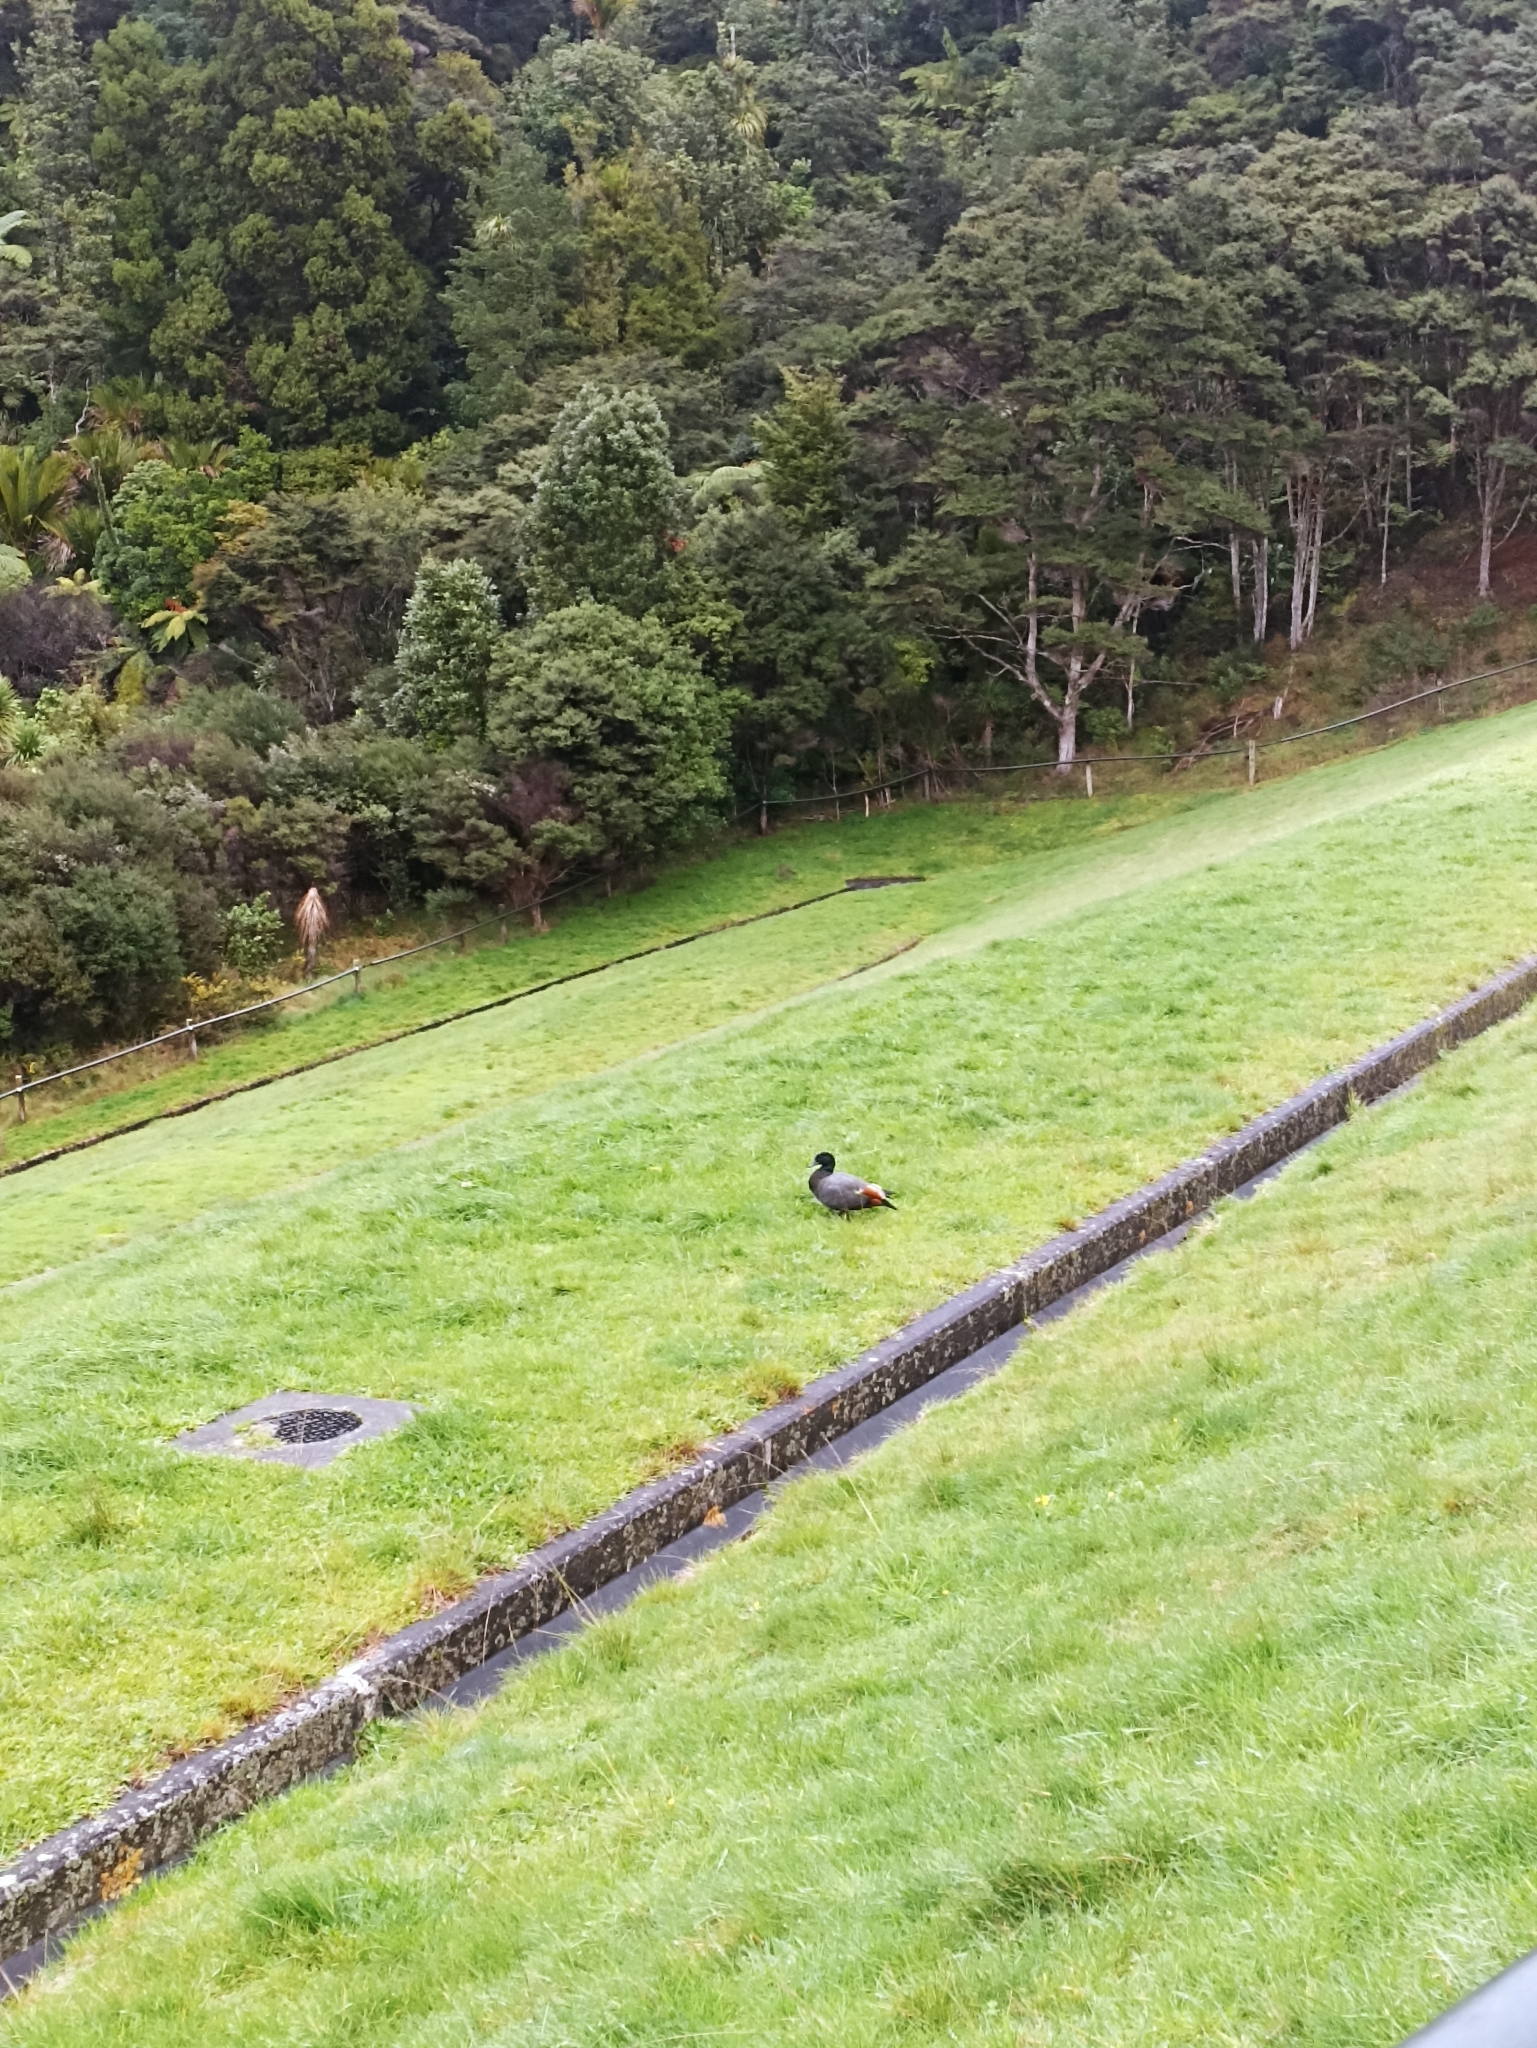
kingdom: Animalia
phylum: Chordata
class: Aves
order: Anseriformes
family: Anatidae
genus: Tadorna
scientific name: Tadorna variegata
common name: Paradise shelduck
